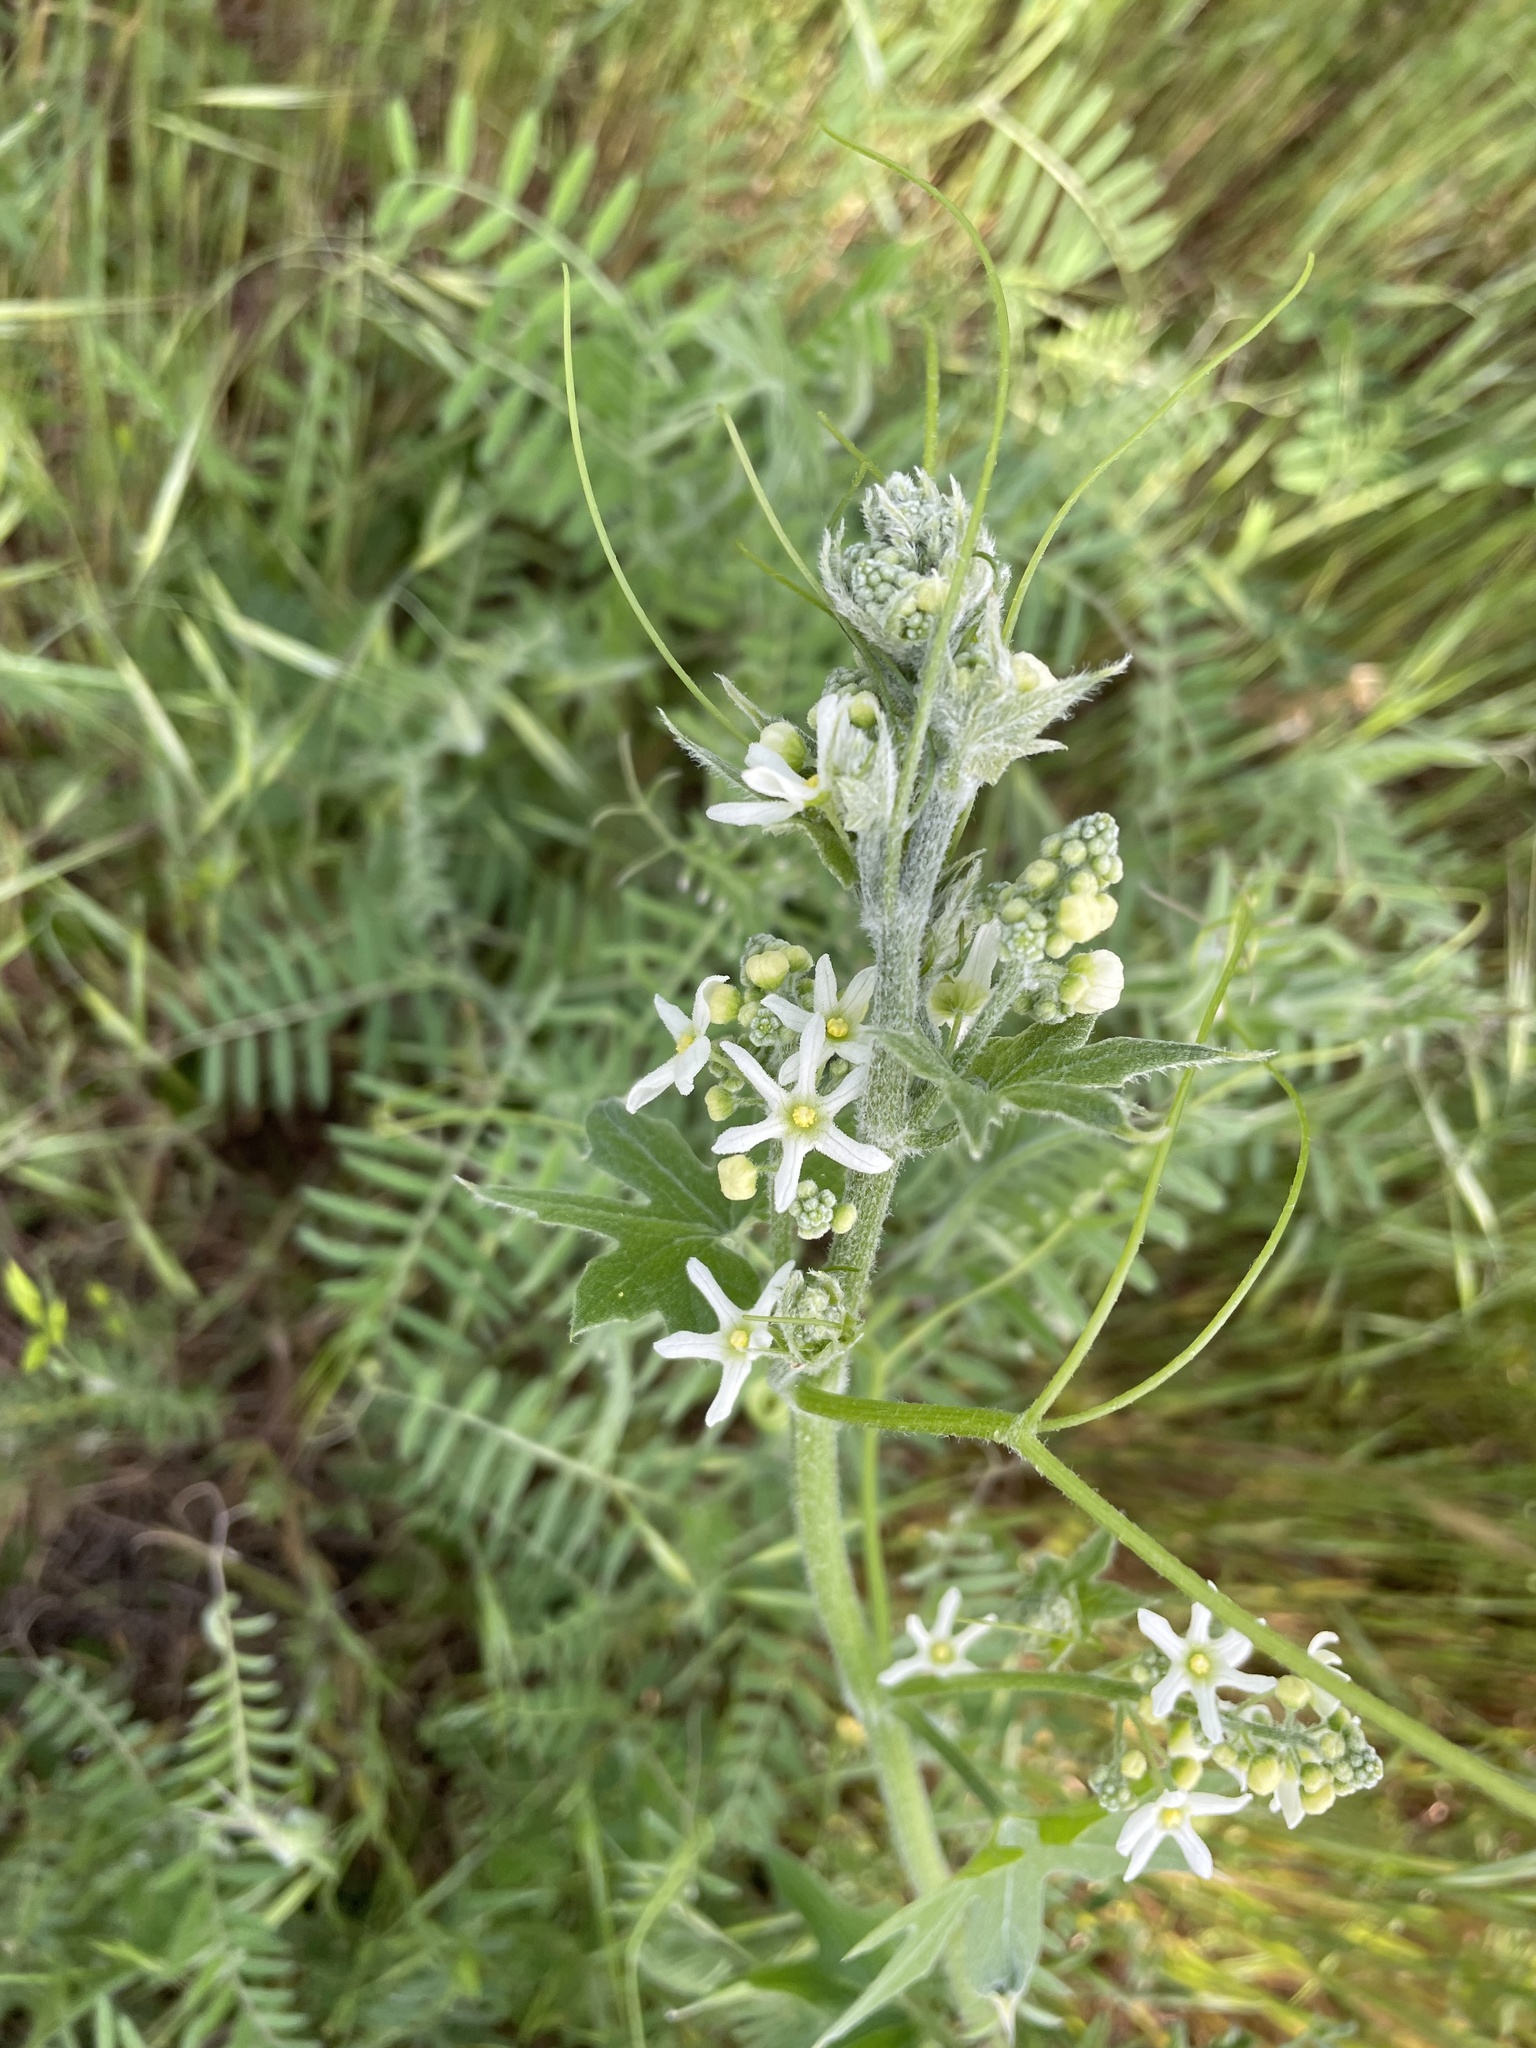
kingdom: Plantae
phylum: Tracheophyta
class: Magnoliopsida
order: Cucurbitales
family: Cucurbitaceae
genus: Marah
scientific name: Marah fabacea
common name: California manroot
